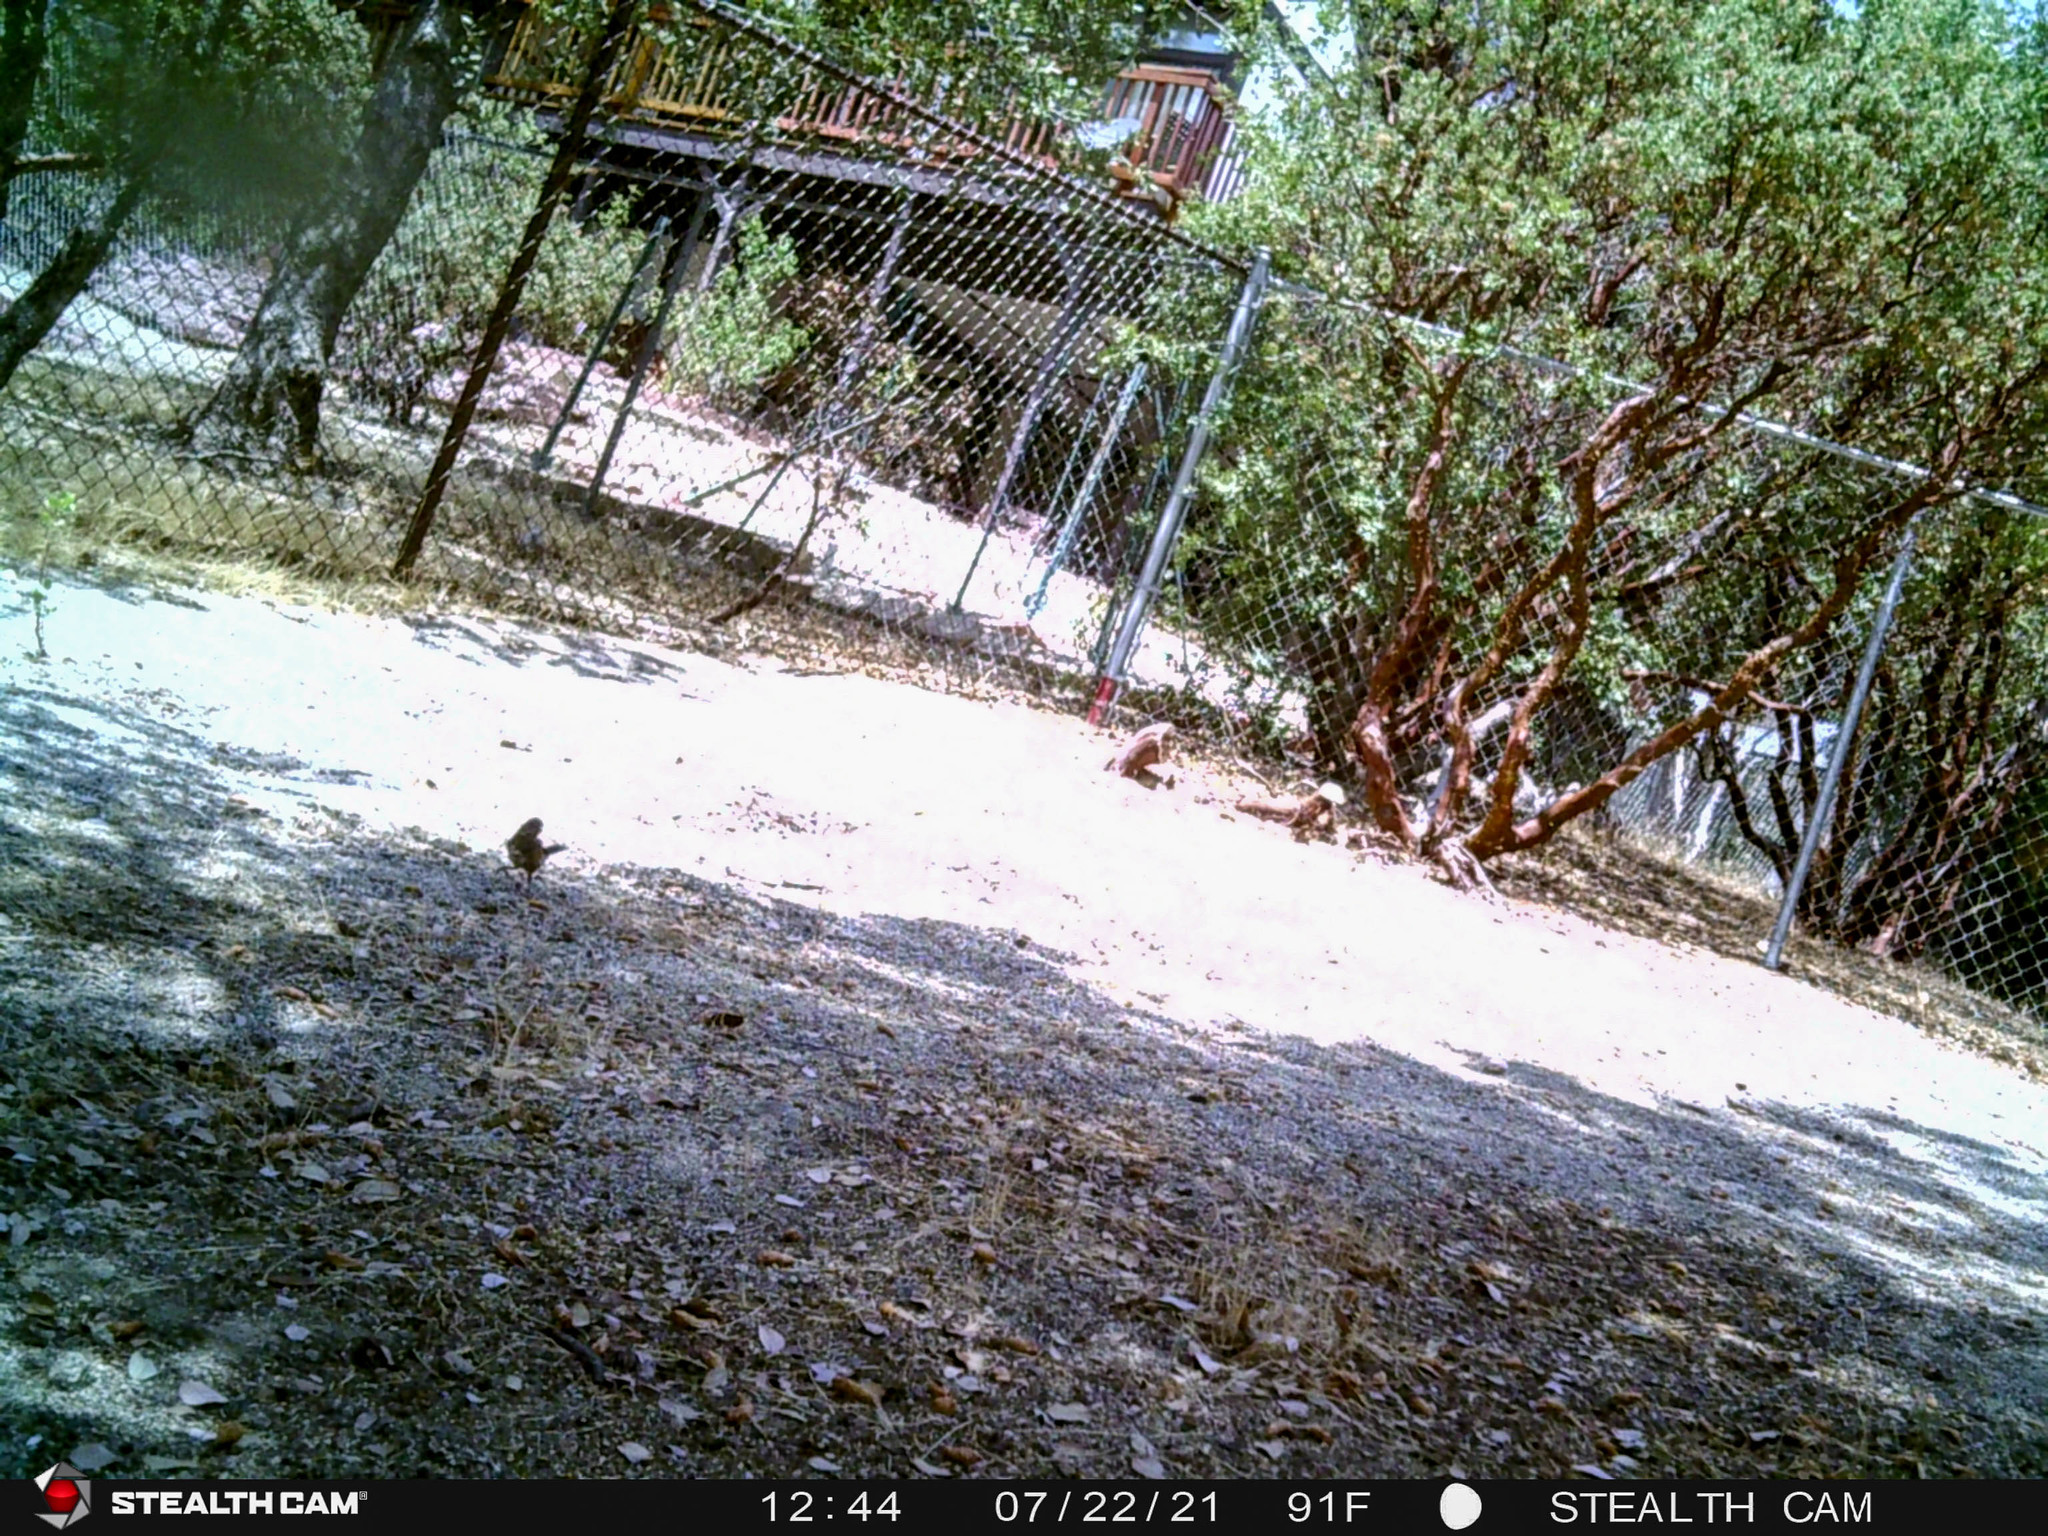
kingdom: Animalia
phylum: Chordata
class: Aves
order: Passeriformes
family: Passerellidae
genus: Pipilo
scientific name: Pipilo maculatus
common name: Spotted towhee
